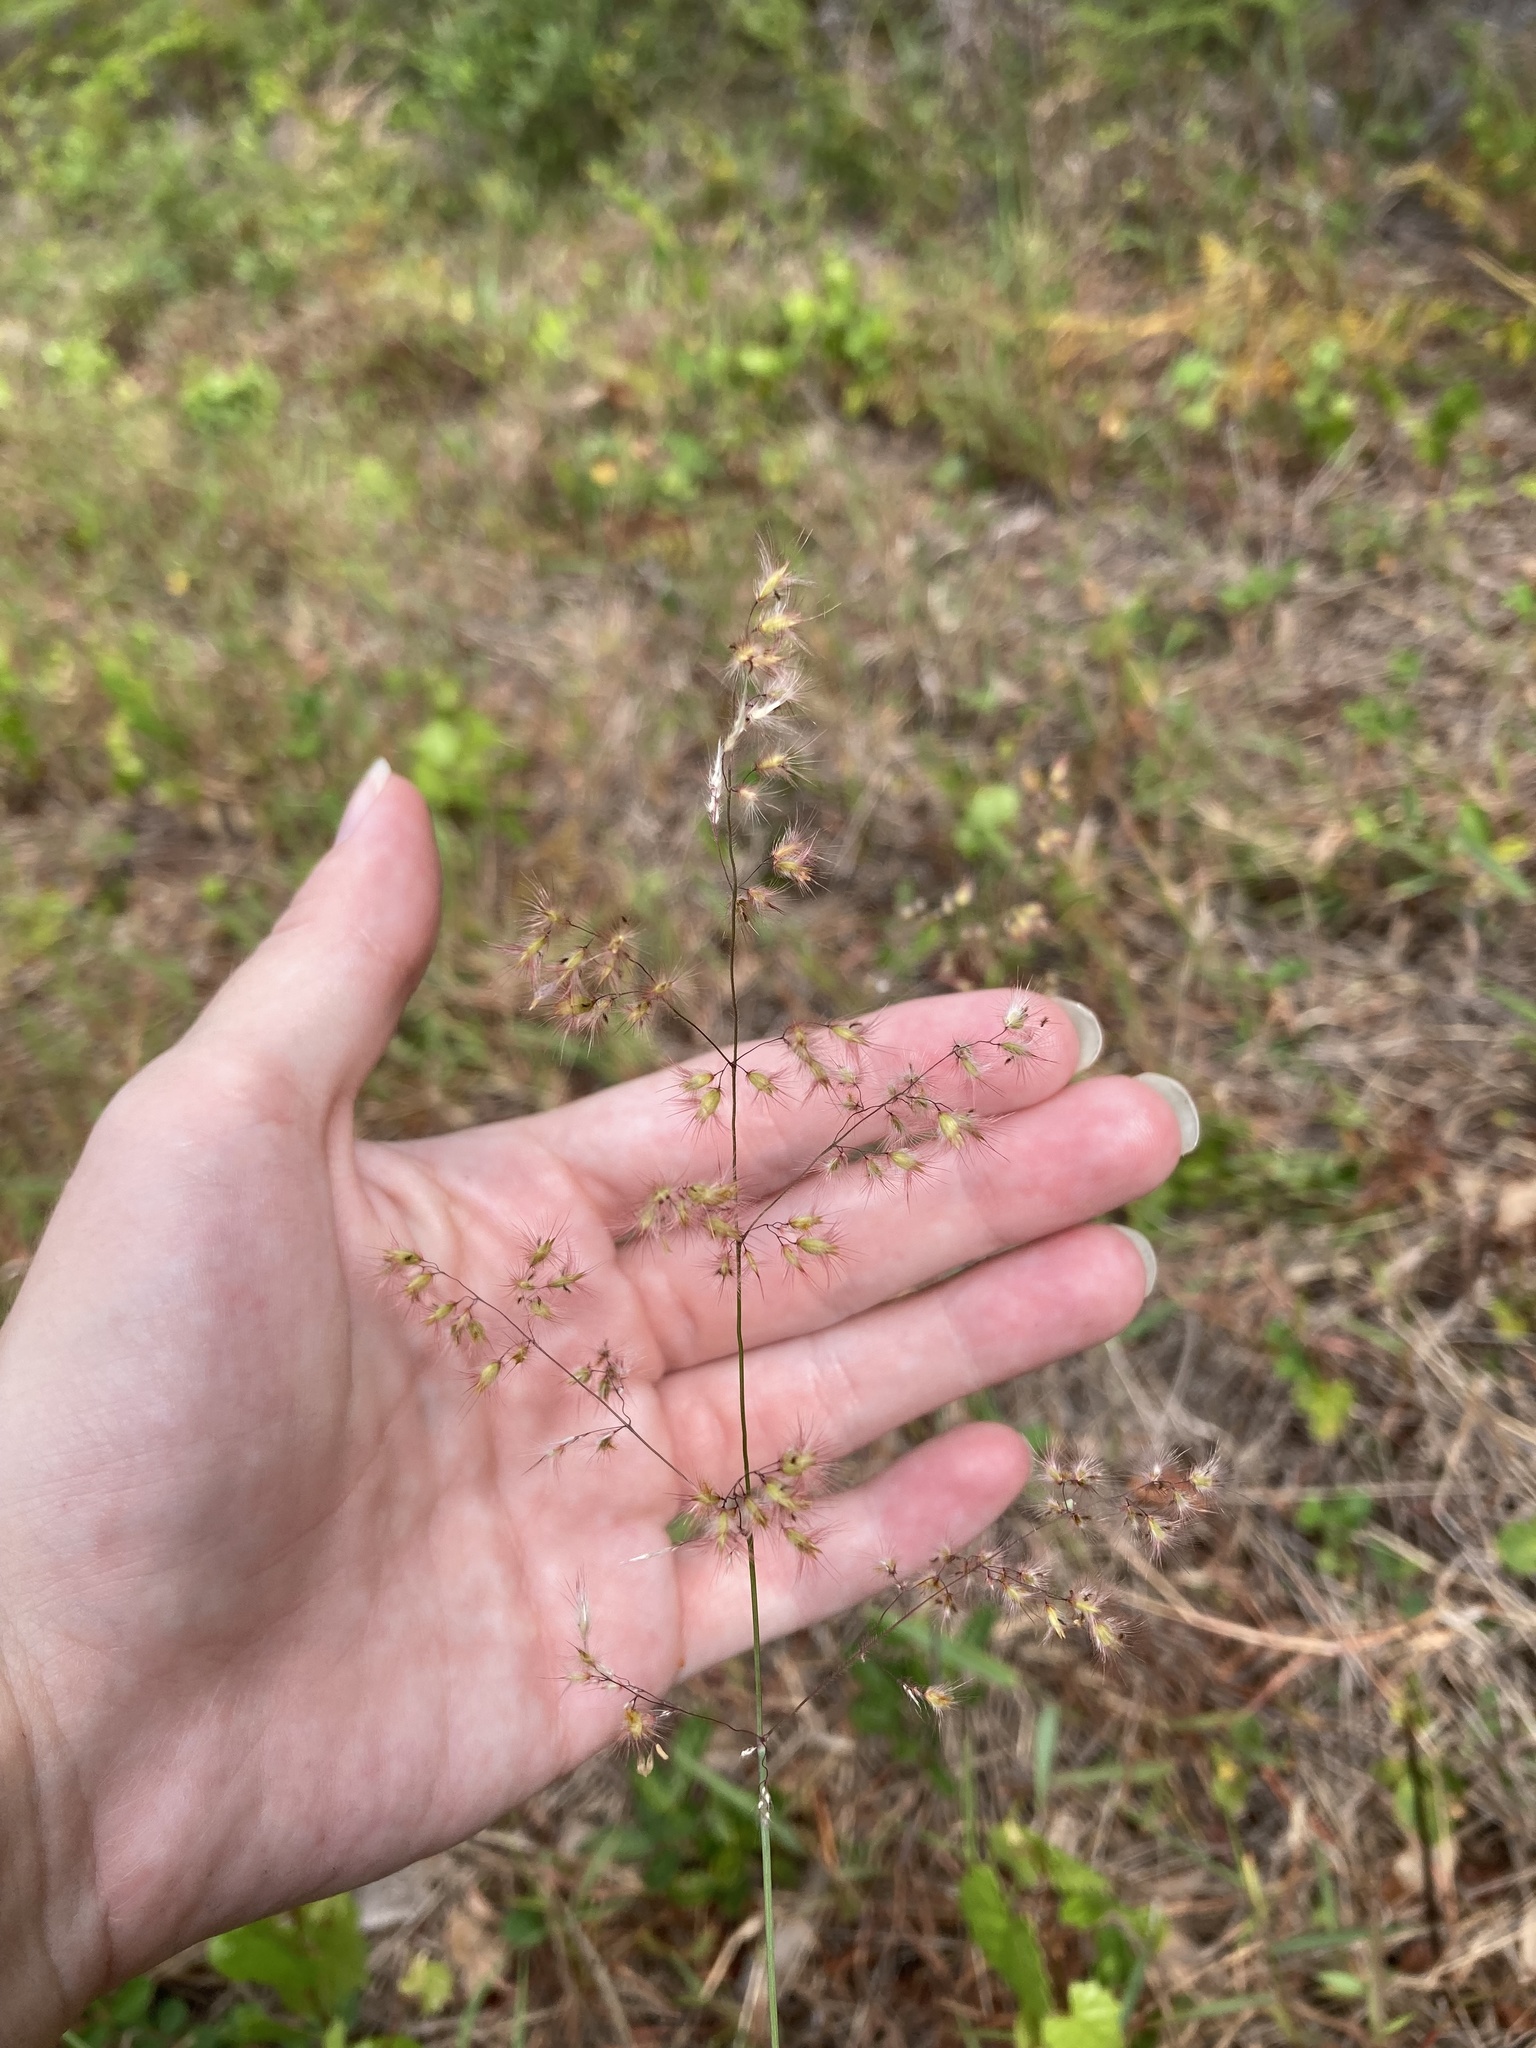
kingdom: Plantae
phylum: Tracheophyta
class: Liliopsida
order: Poales
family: Poaceae
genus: Melinis
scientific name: Melinis repens
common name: Rose natal grass
